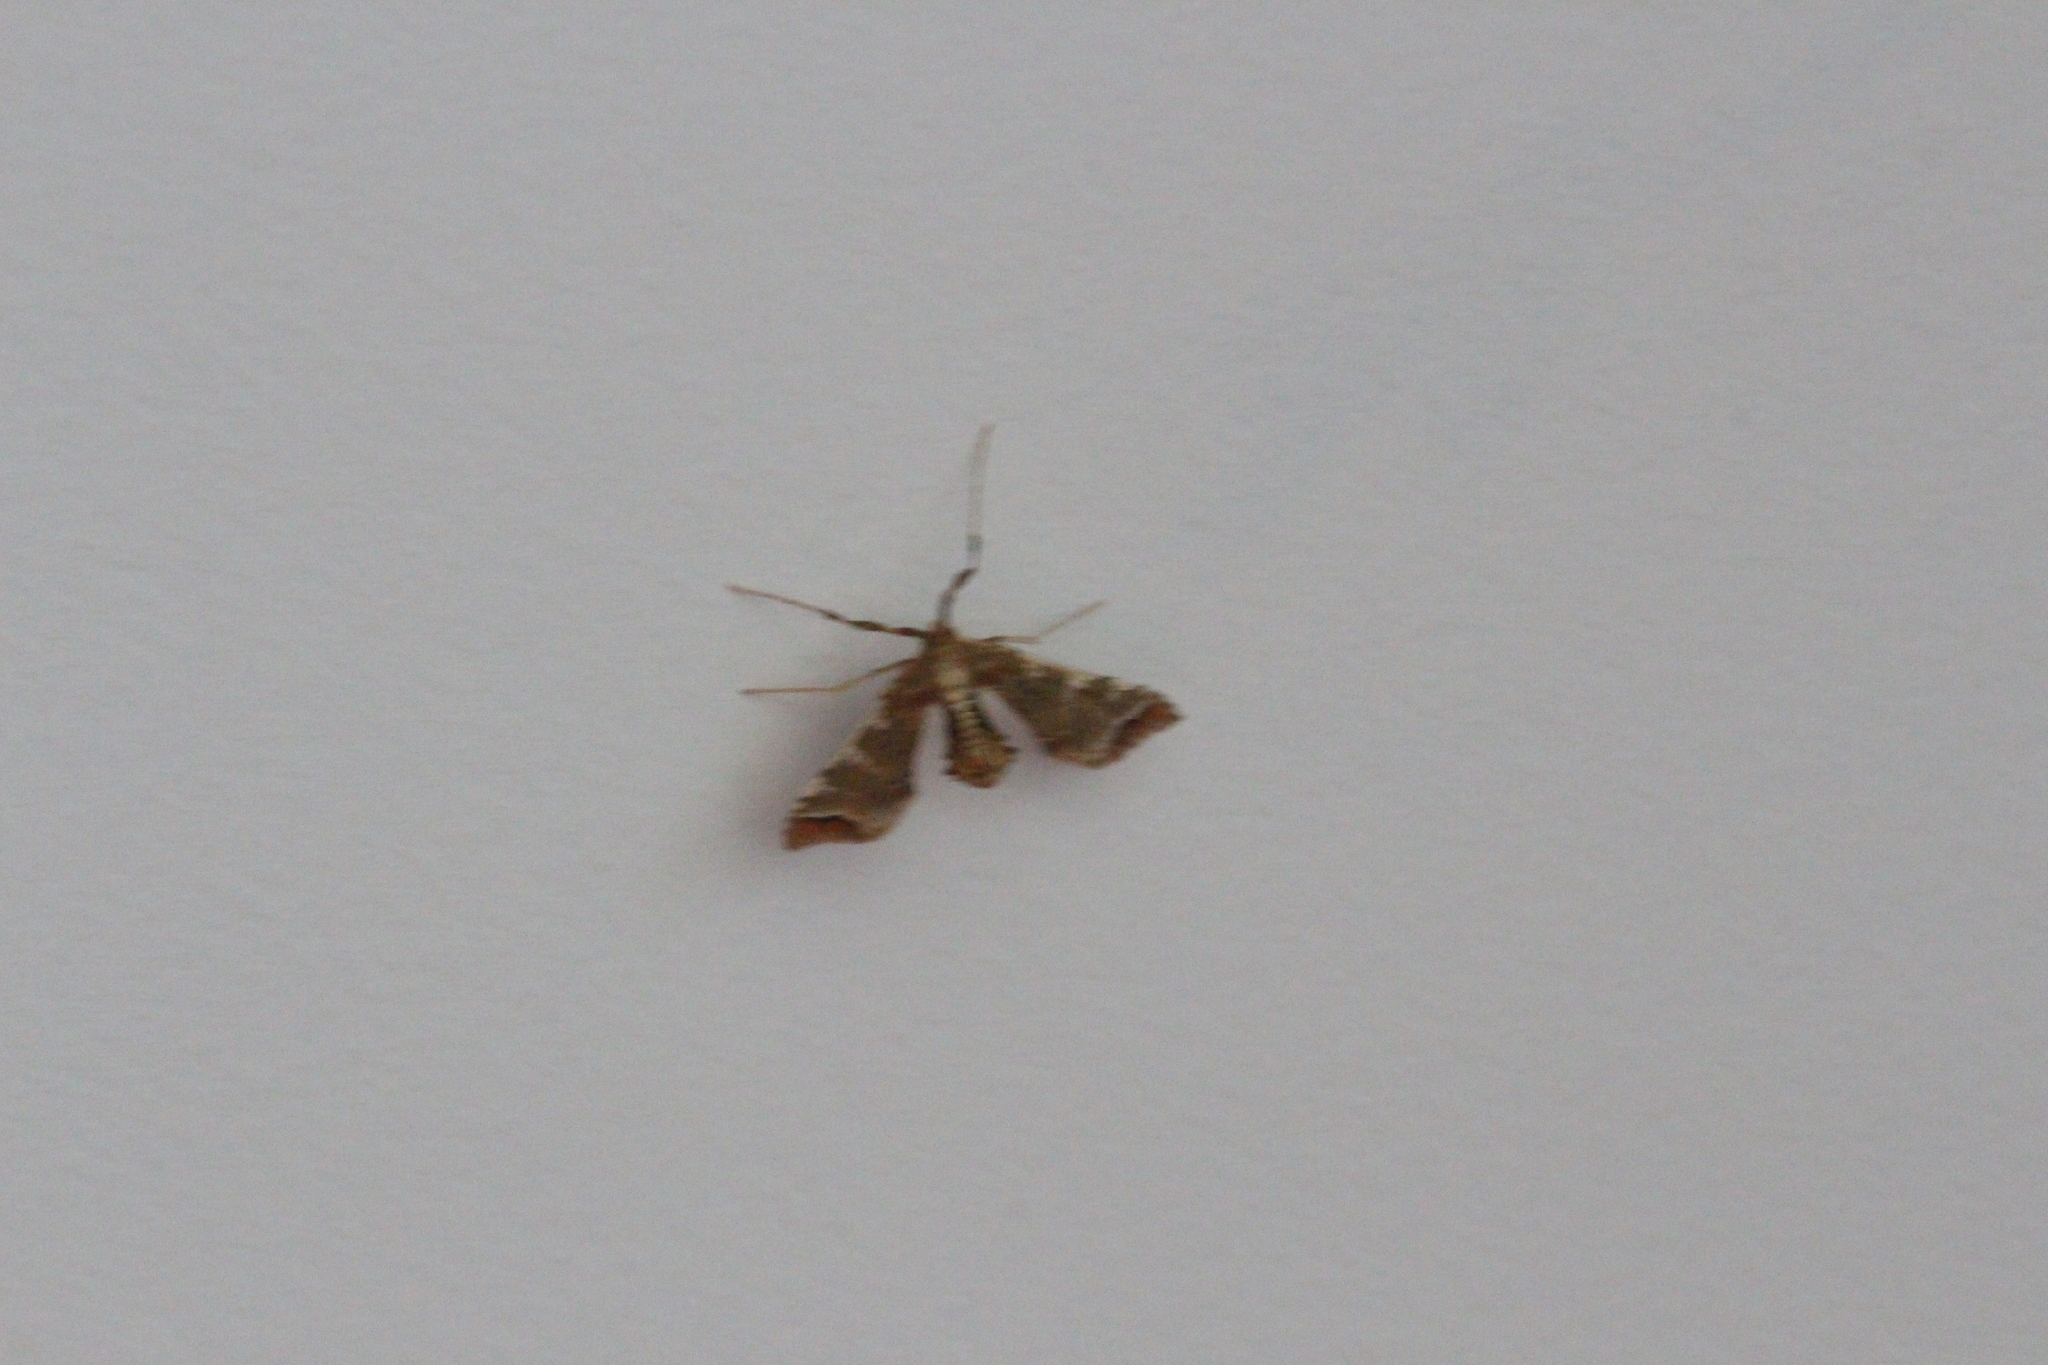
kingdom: Animalia
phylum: Arthropoda
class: Insecta
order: Lepidoptera
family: Crambidae
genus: Sceliodes
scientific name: Sceliodes cordalis
